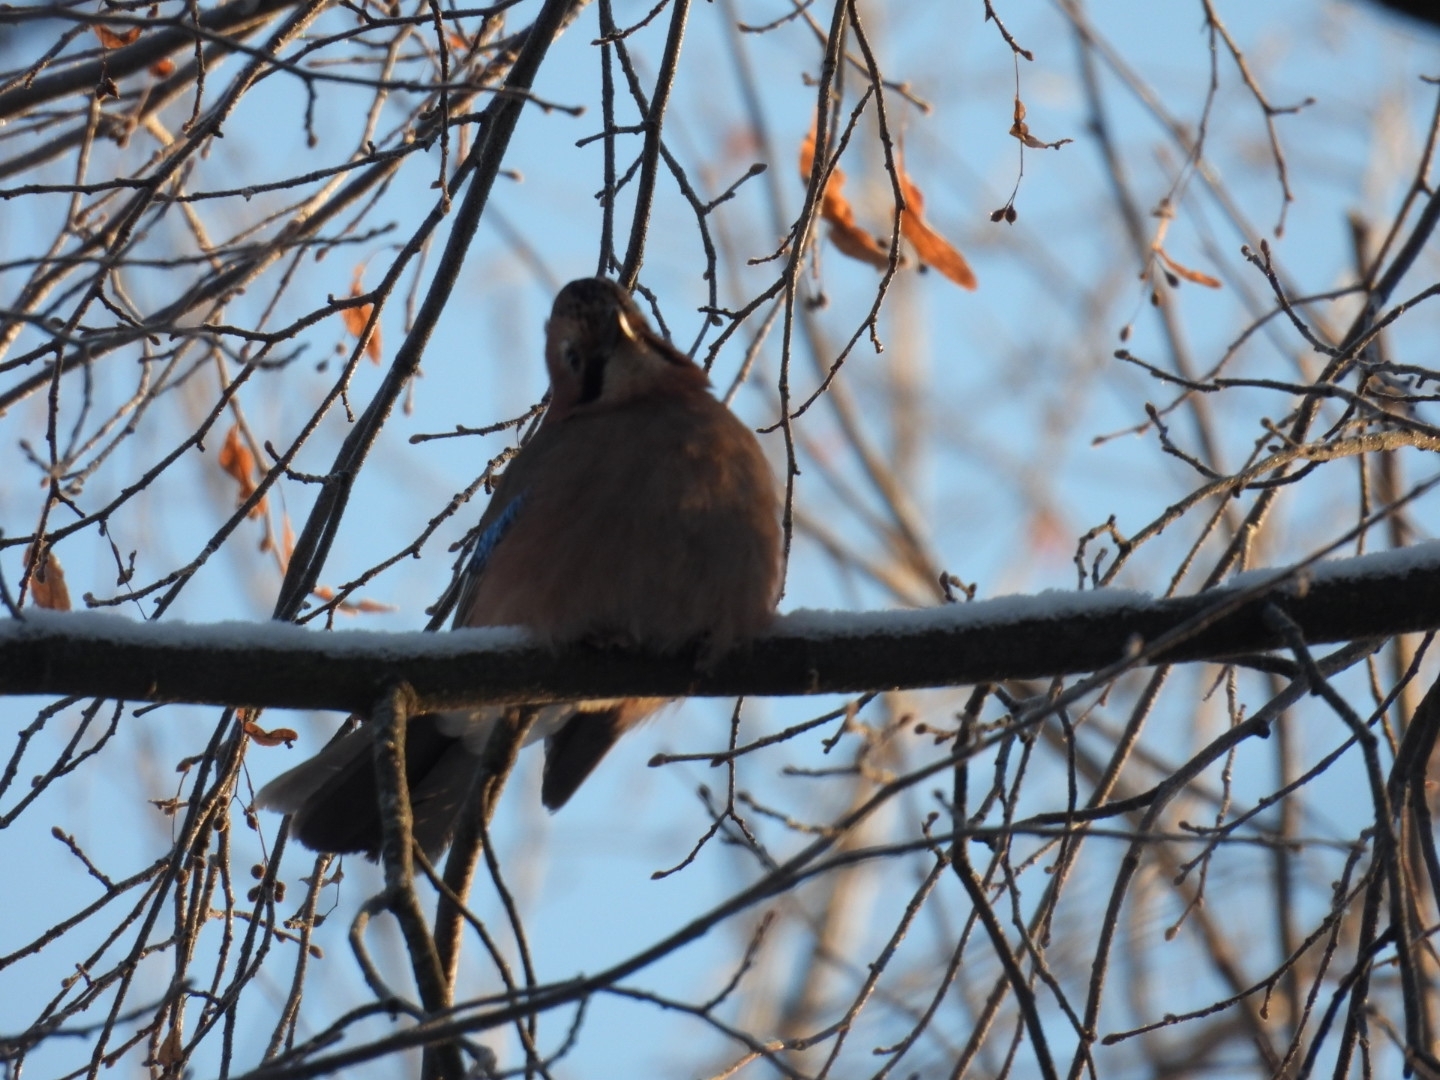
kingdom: Animalia
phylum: Chordata
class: Aves
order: Passeriformes
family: Corvidae
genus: Garrulus
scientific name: Garrulus glandarius
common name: Eurasian jay
